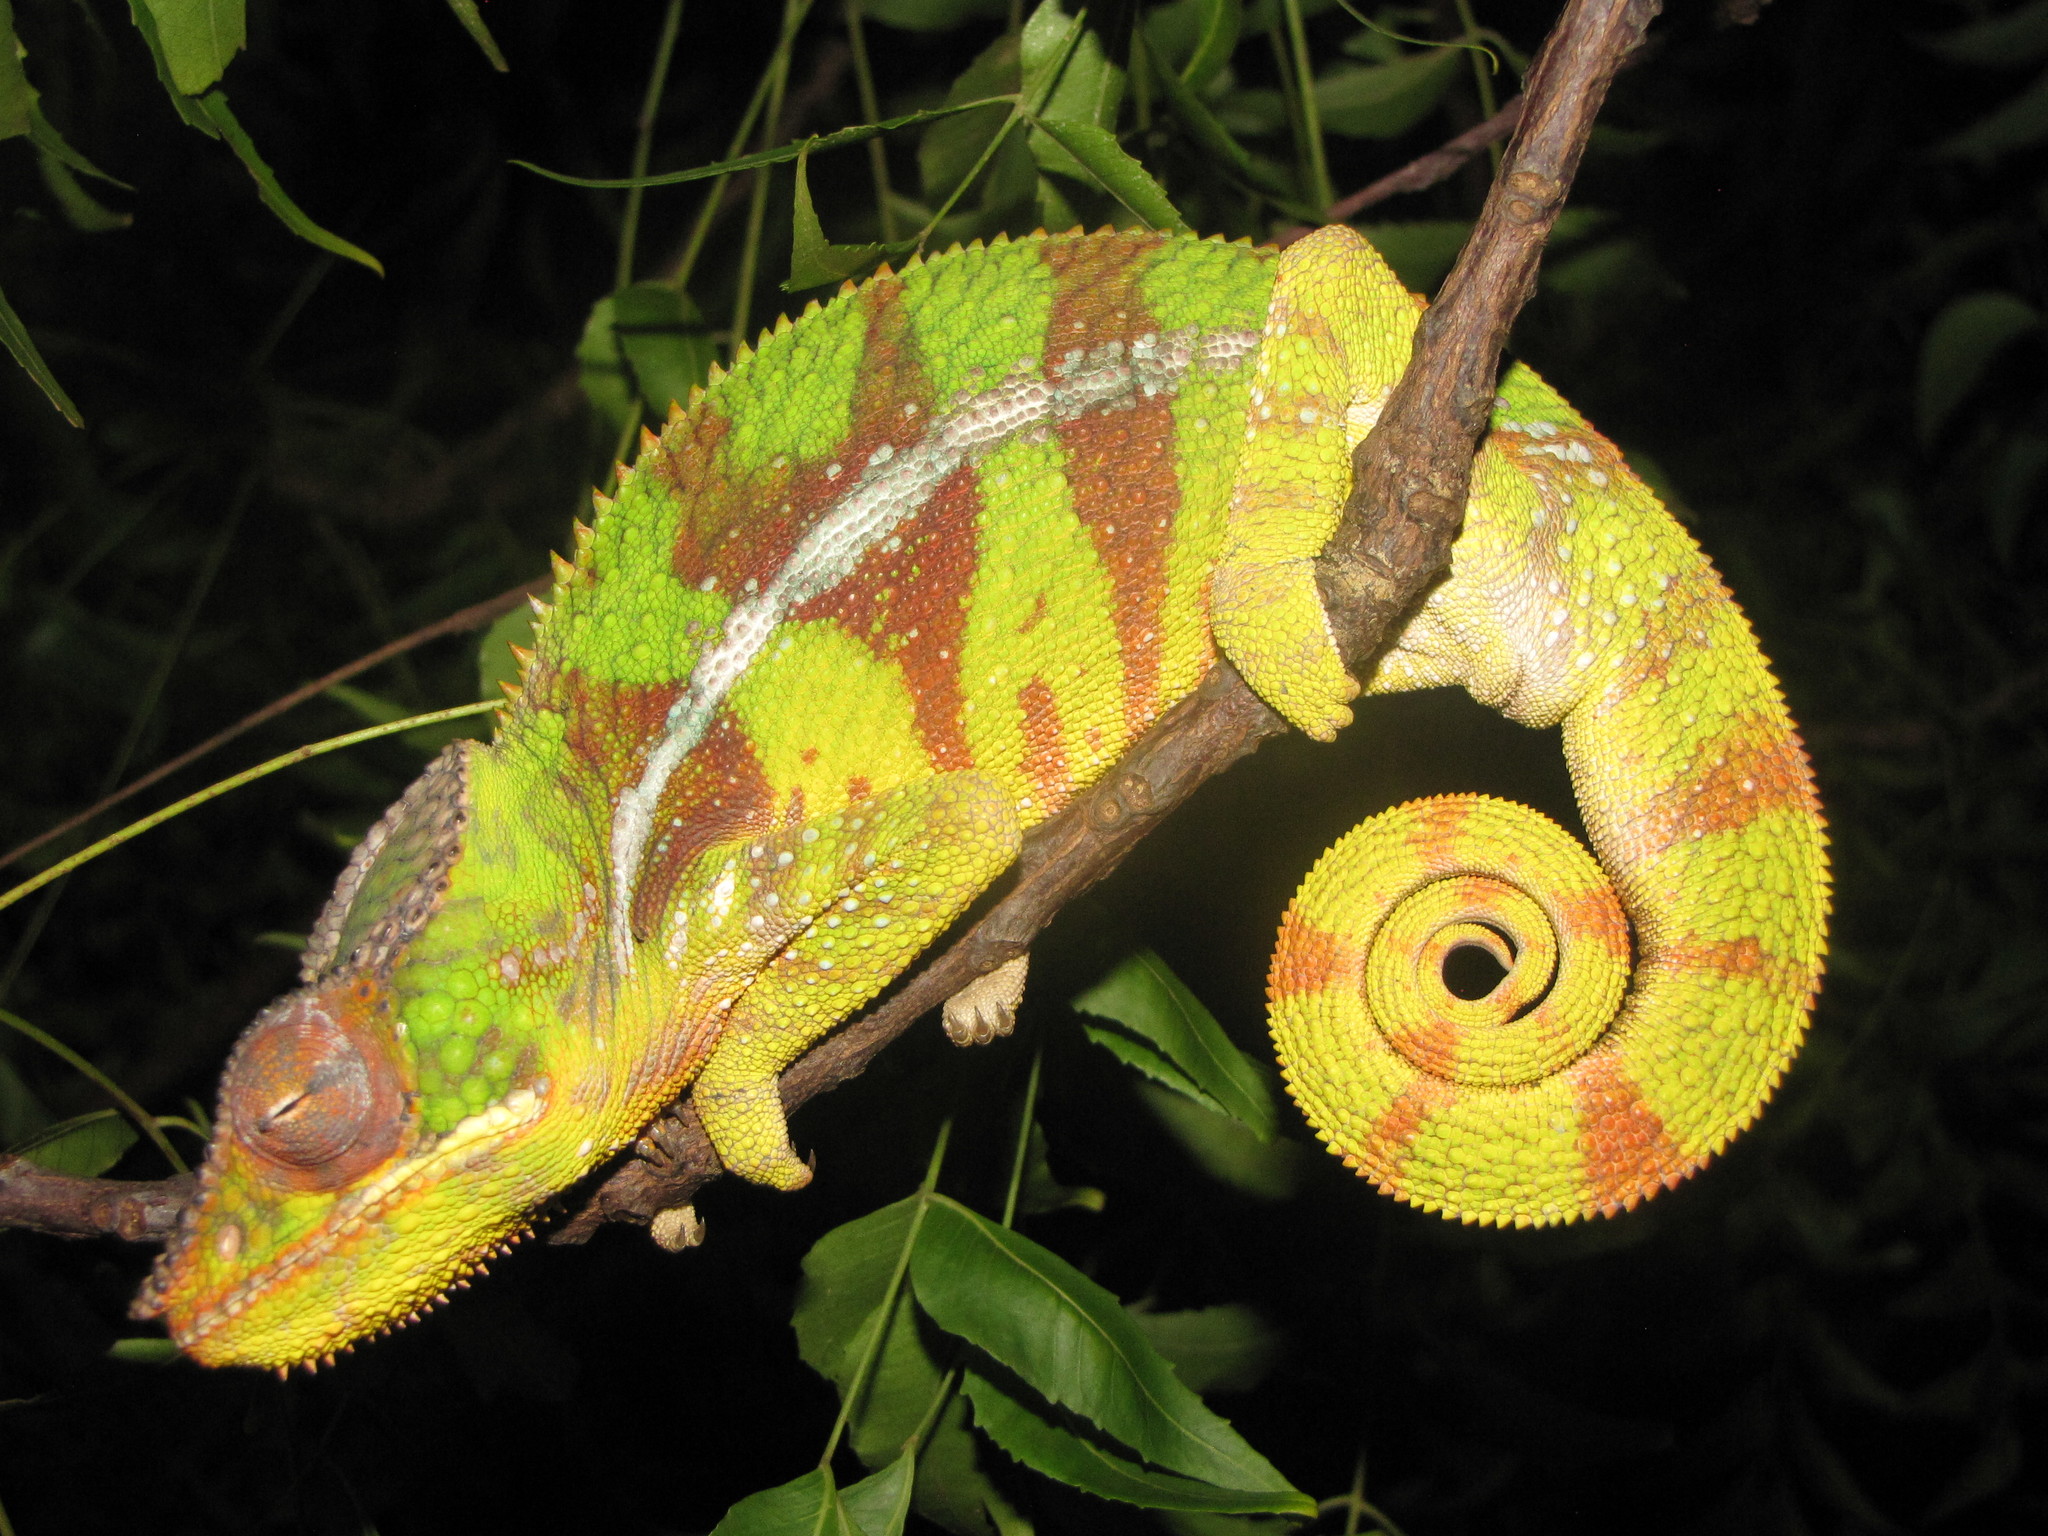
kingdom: Animalia
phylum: Chordata
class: Squamata
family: Chamaeleonidae
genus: Furcifer
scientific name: Furcifer pardalis
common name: Panther chameleon
